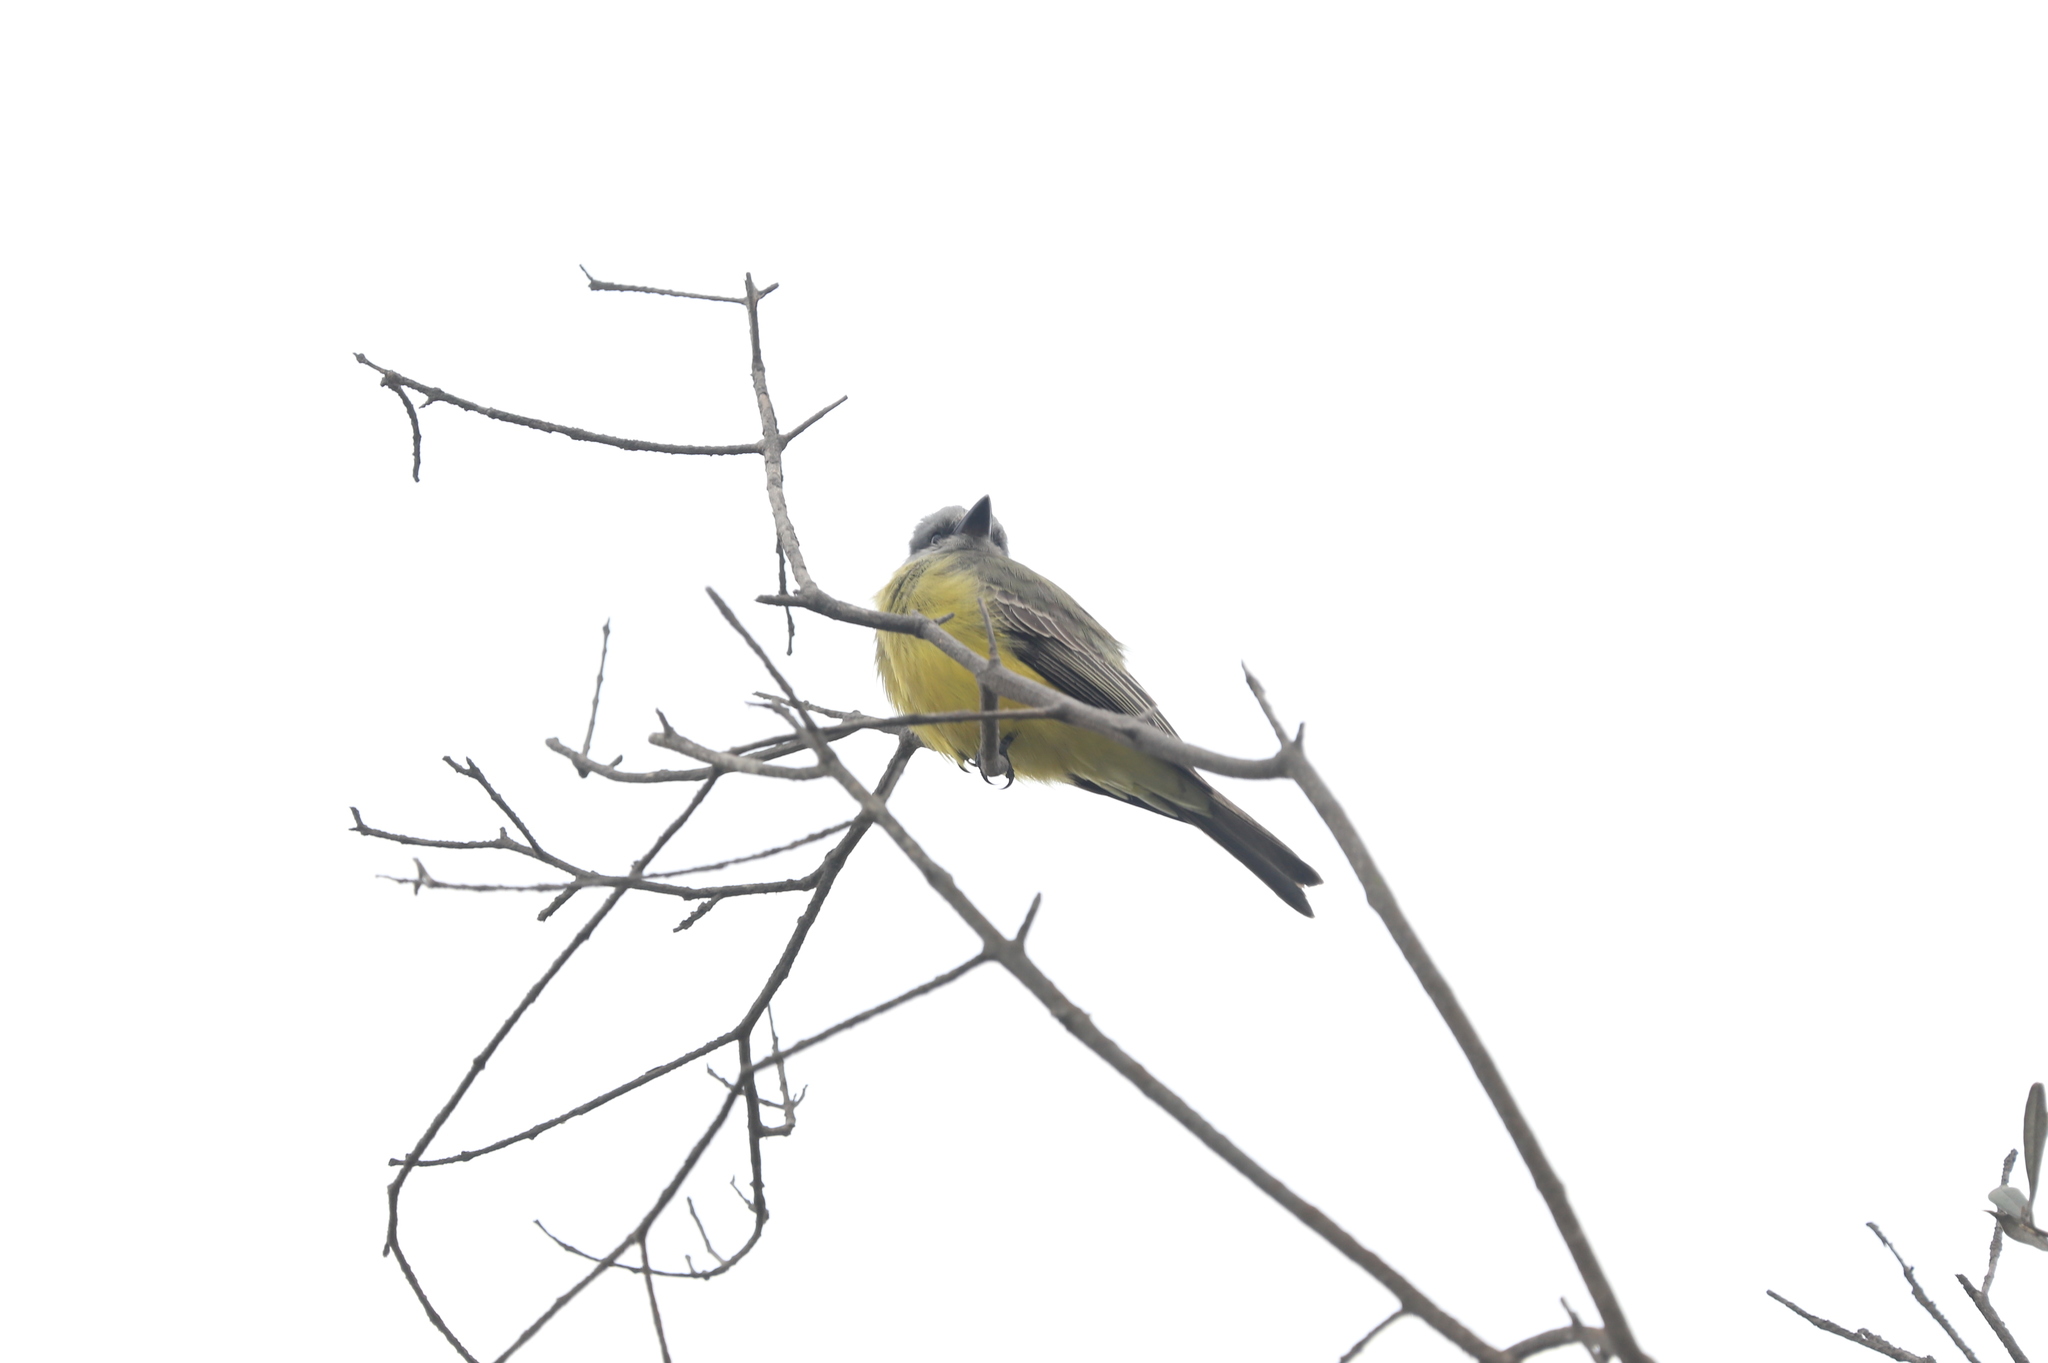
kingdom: Animalia
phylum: Chordata
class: Aves
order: Passeriformes
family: Tyrannidae
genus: Tyrannus
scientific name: Tyrannus melancholicus
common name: Tropical kingbird
